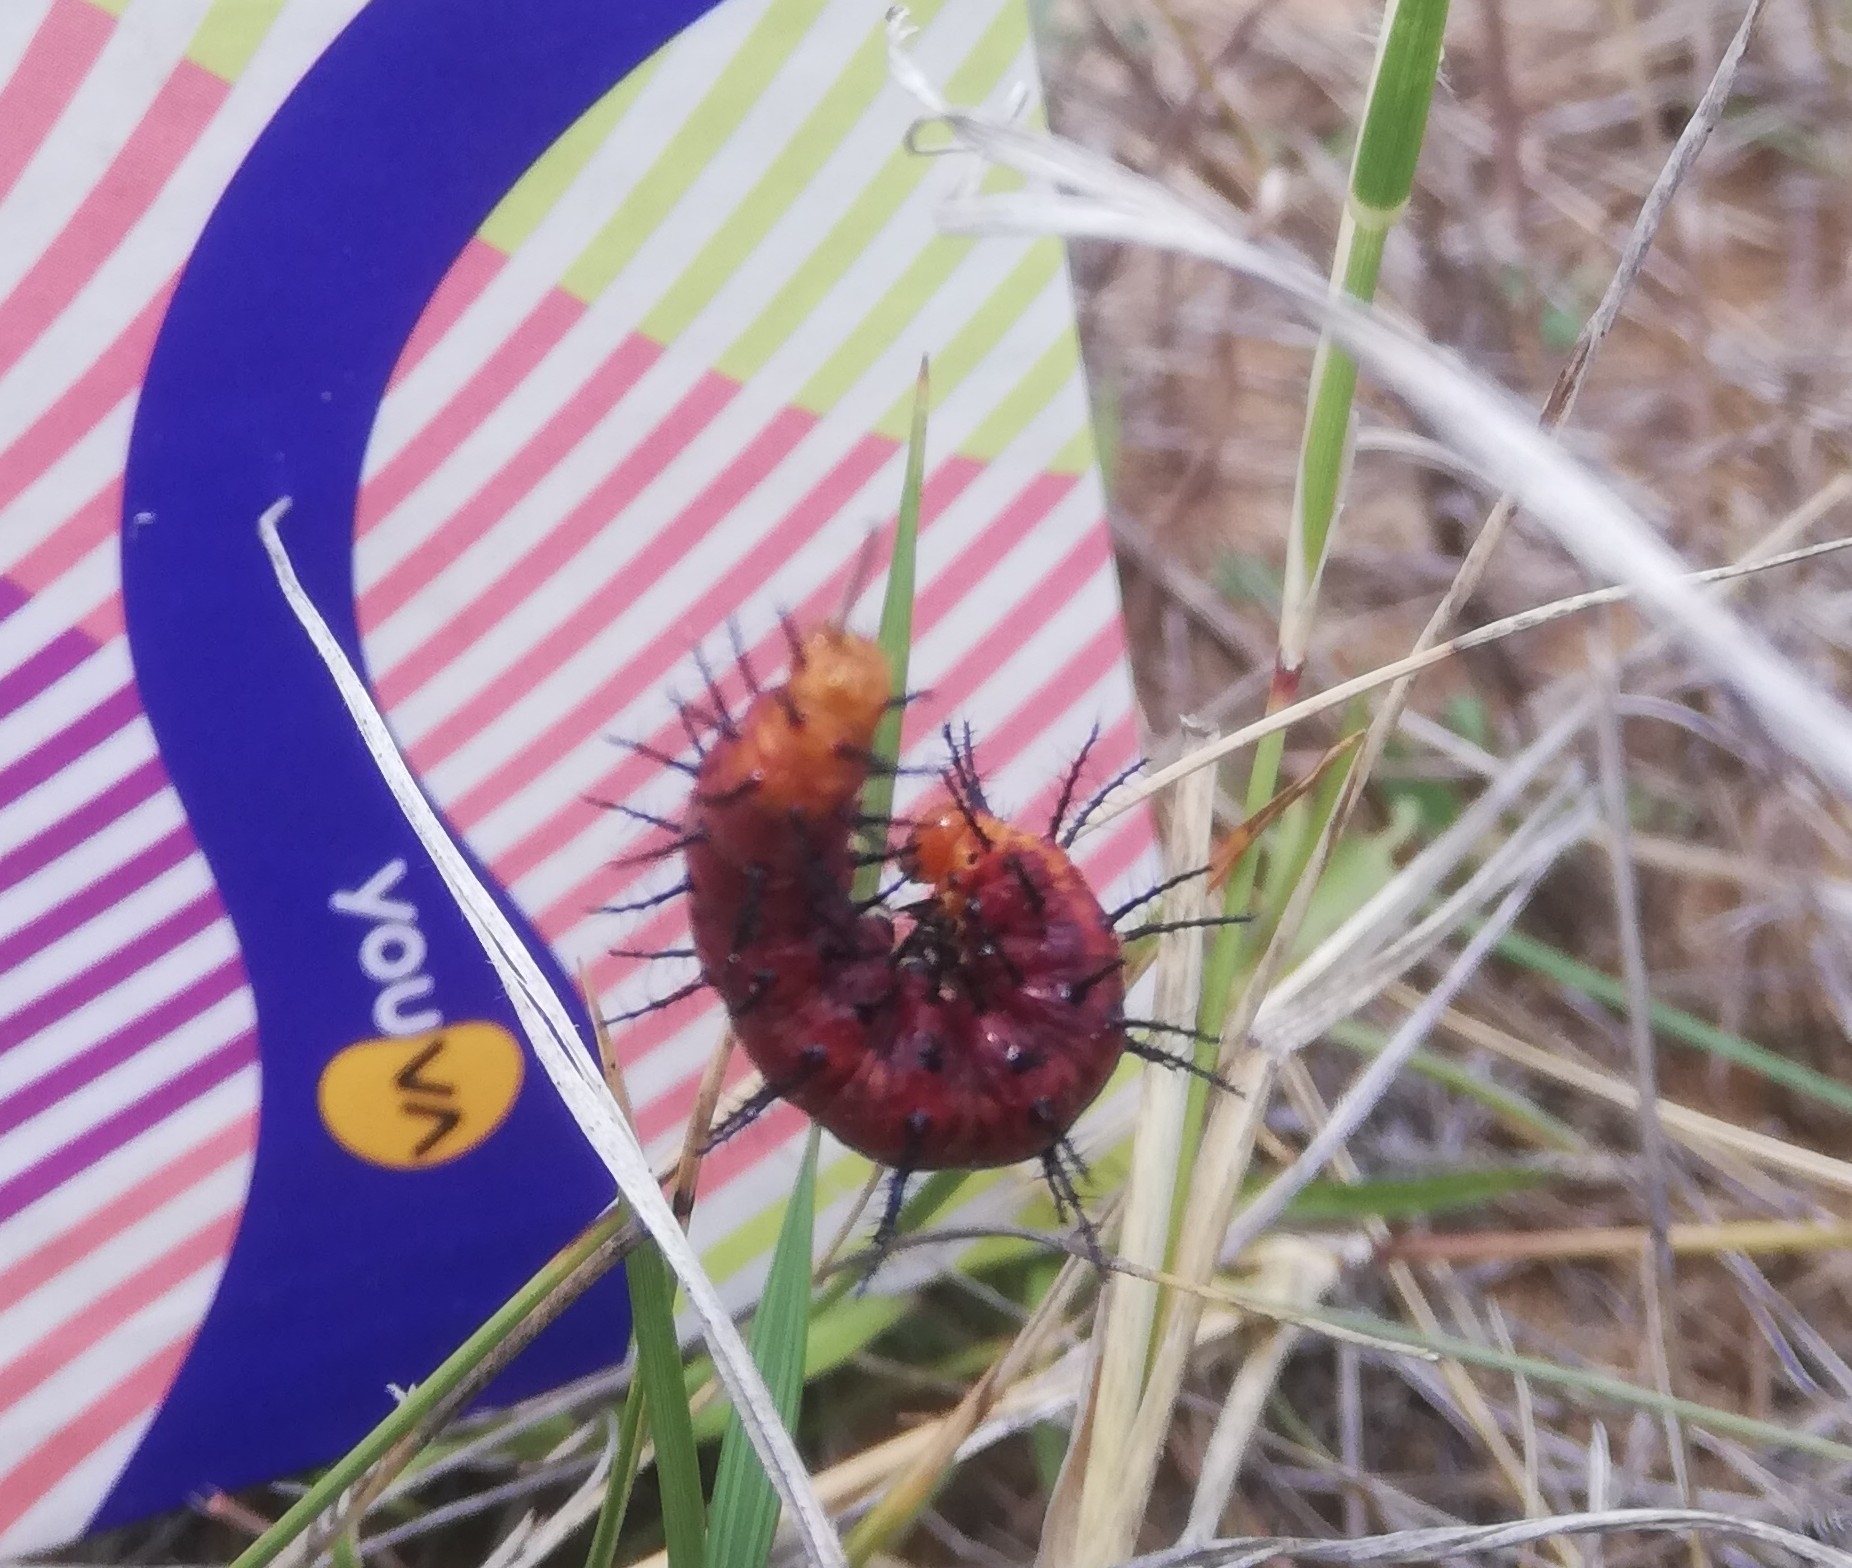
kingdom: Animalia
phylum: Arthropoda
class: Insecta
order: Lepidoptera
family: Nymphalidae
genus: Acraea
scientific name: Acraea terpsicore
